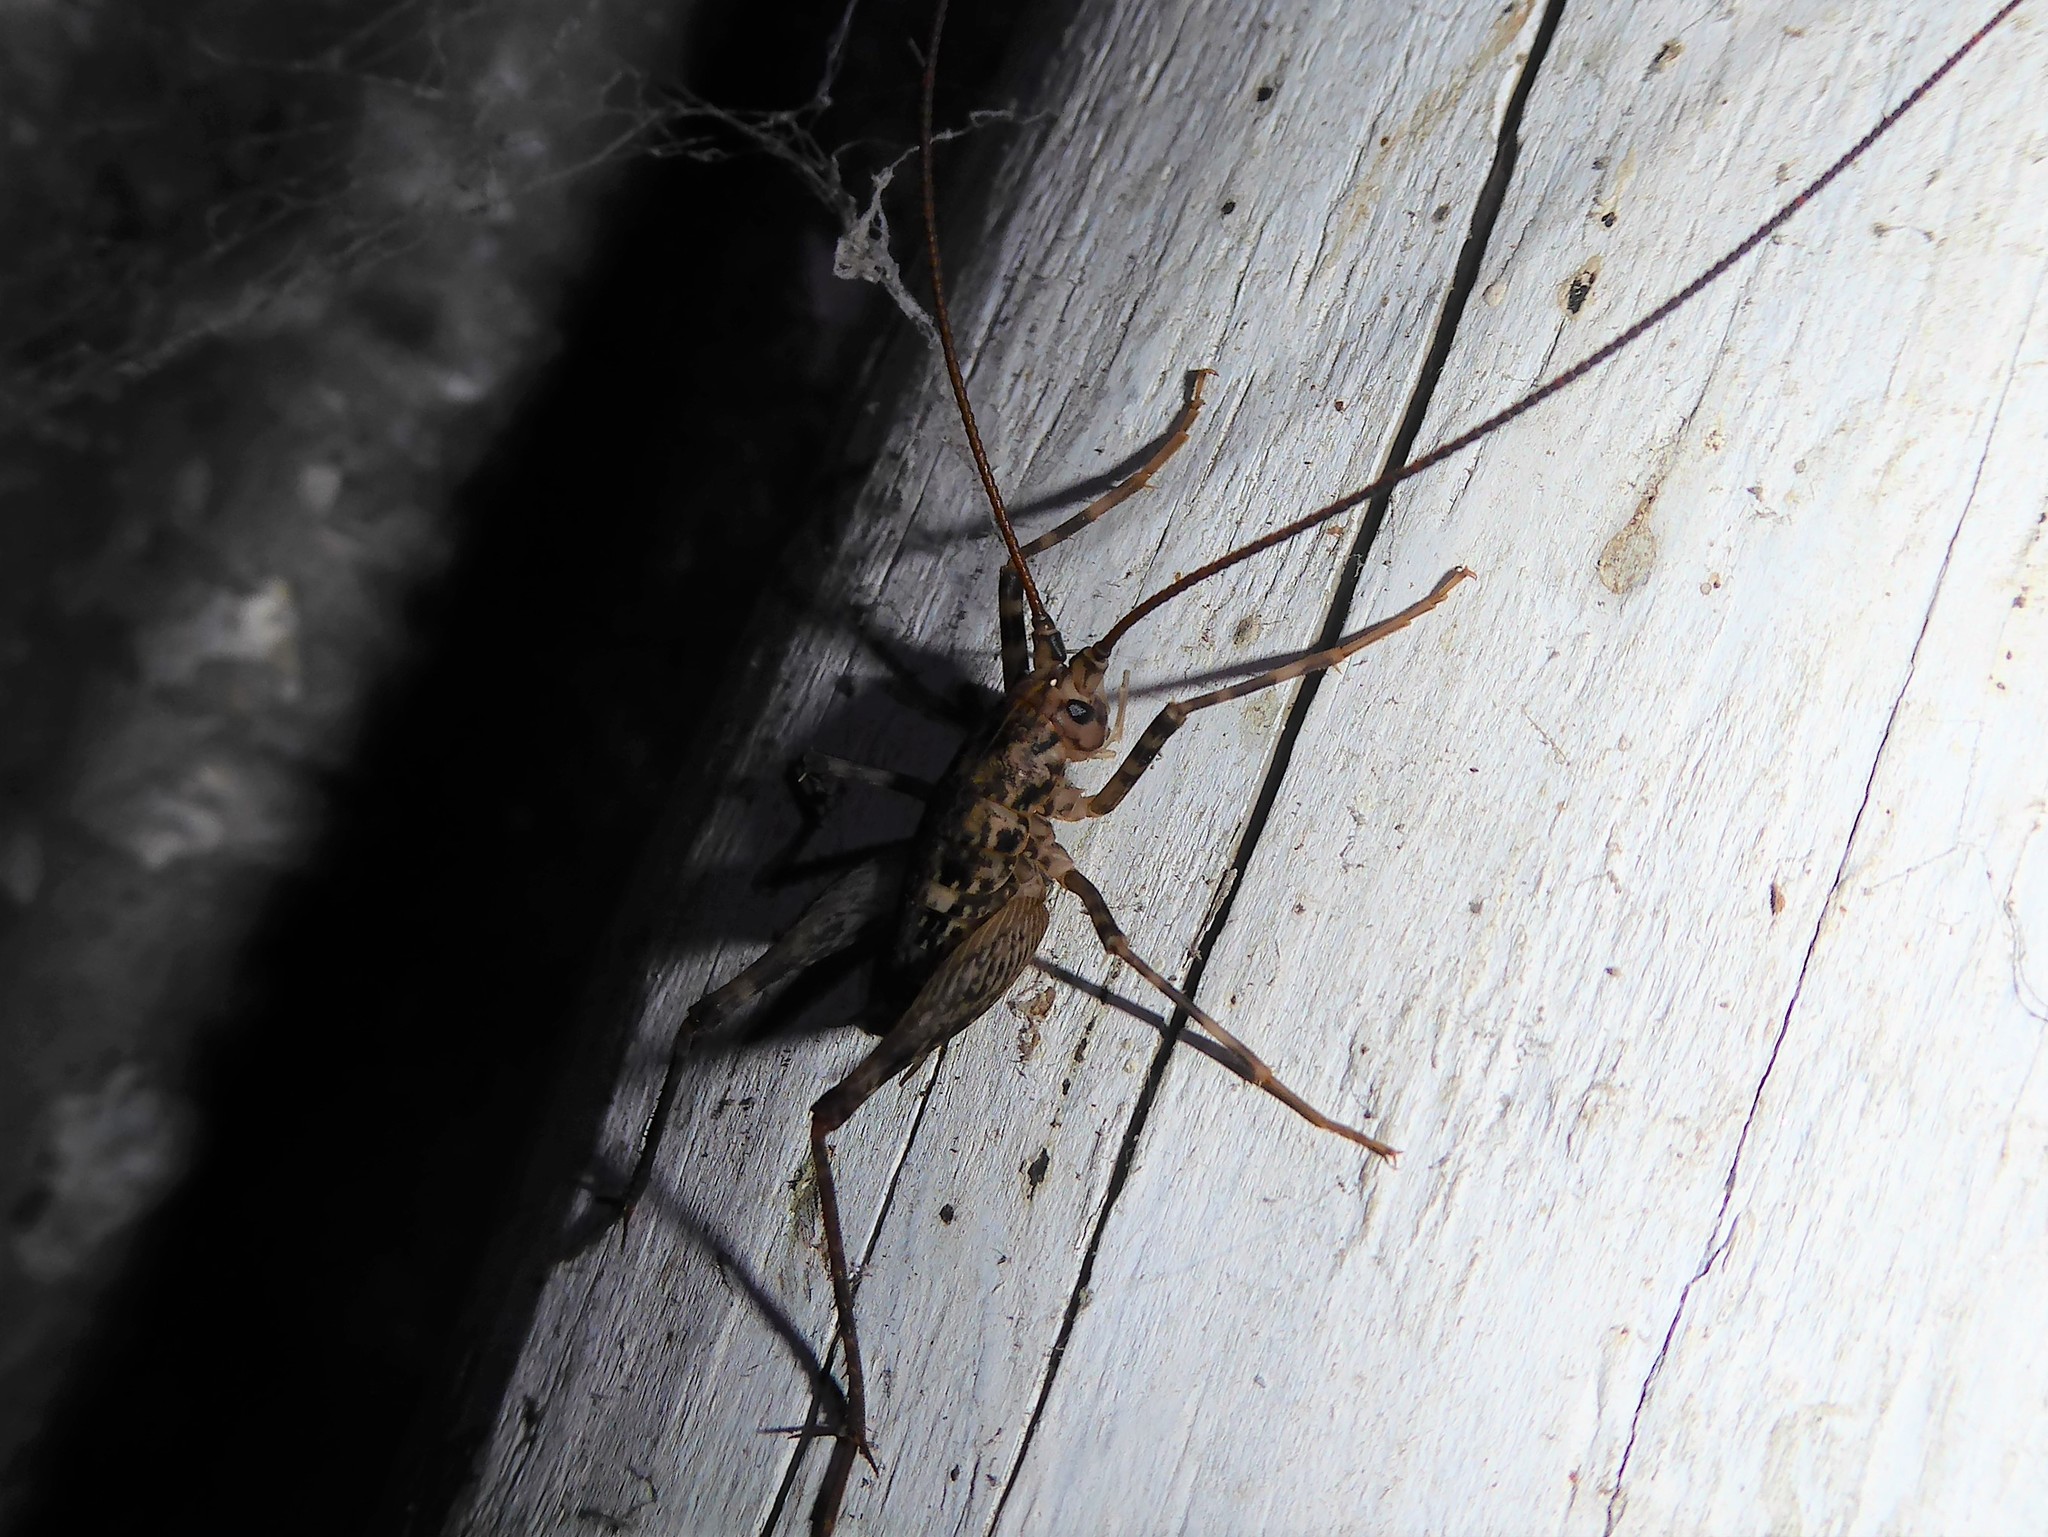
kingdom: Animalia
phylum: Arthropoda
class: Insecta
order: Orthoptera
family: Rhaphidophoridae
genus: Pleioplectron
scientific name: Pleioplectron simplex
